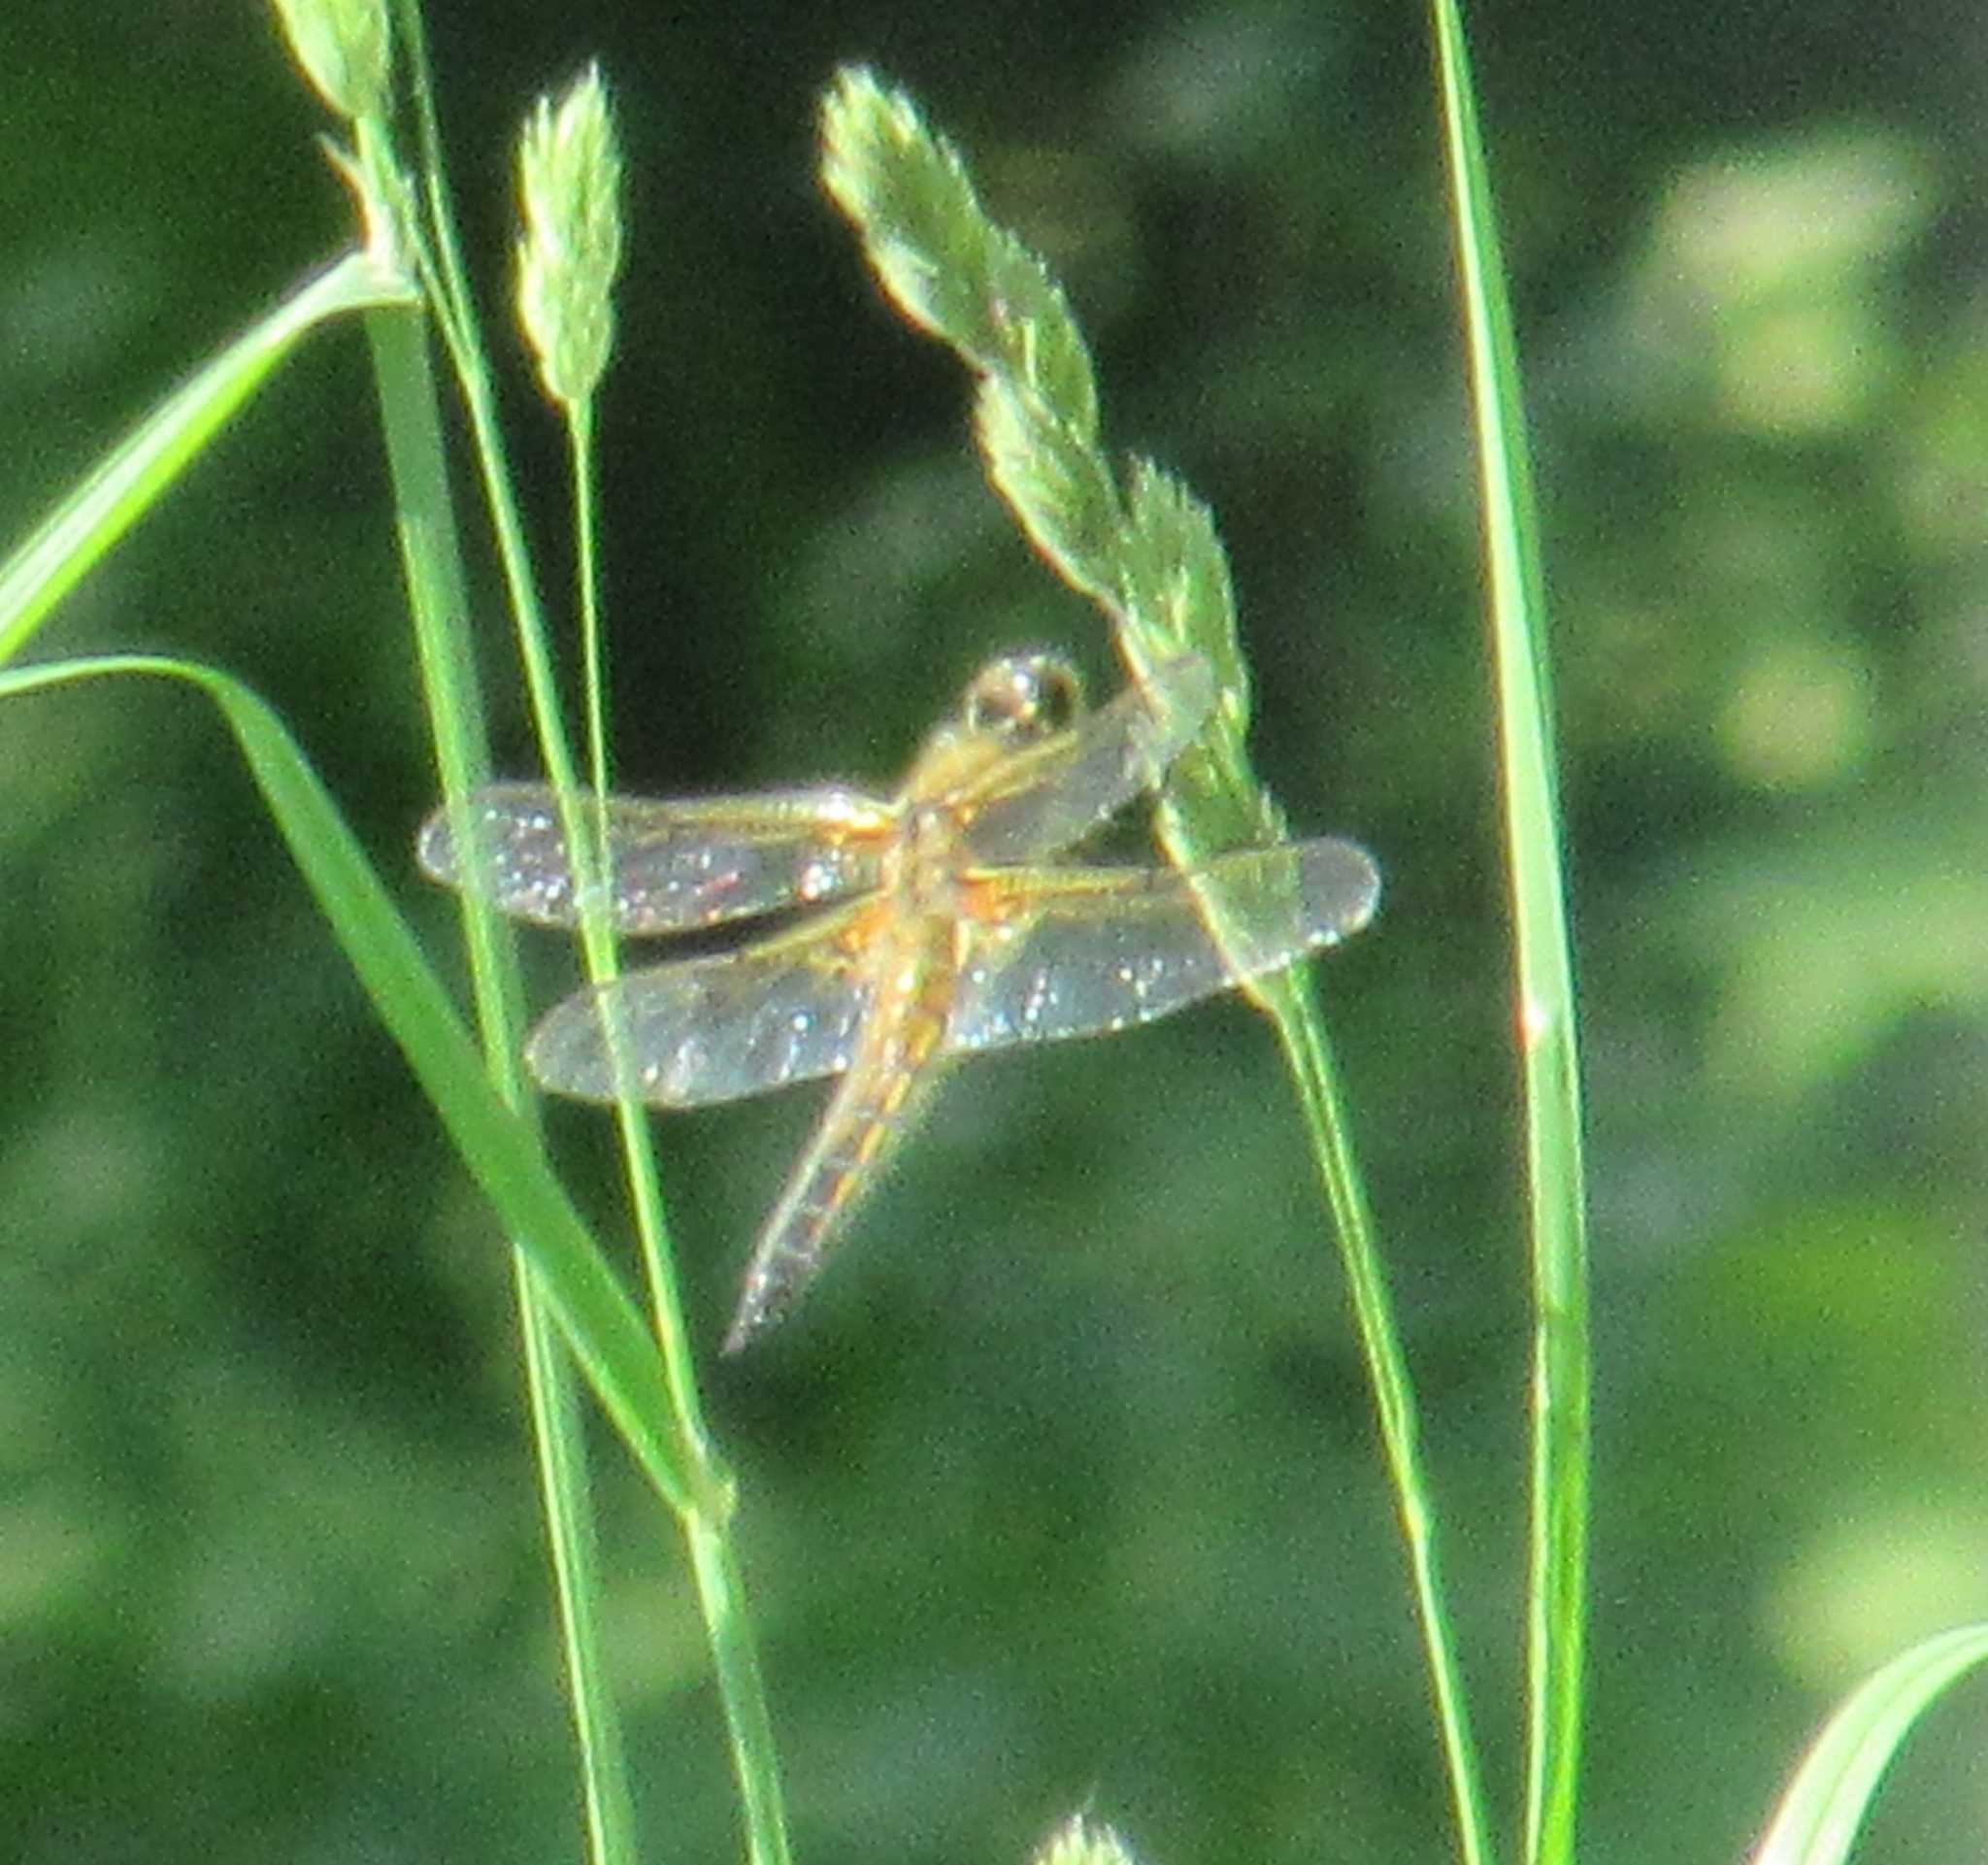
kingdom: Animalia
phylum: Arthropoda
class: Insecta
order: Odonata
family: Libellulidae
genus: Libellula
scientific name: Libellula quadrimaculata
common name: Four-spotted chaser
